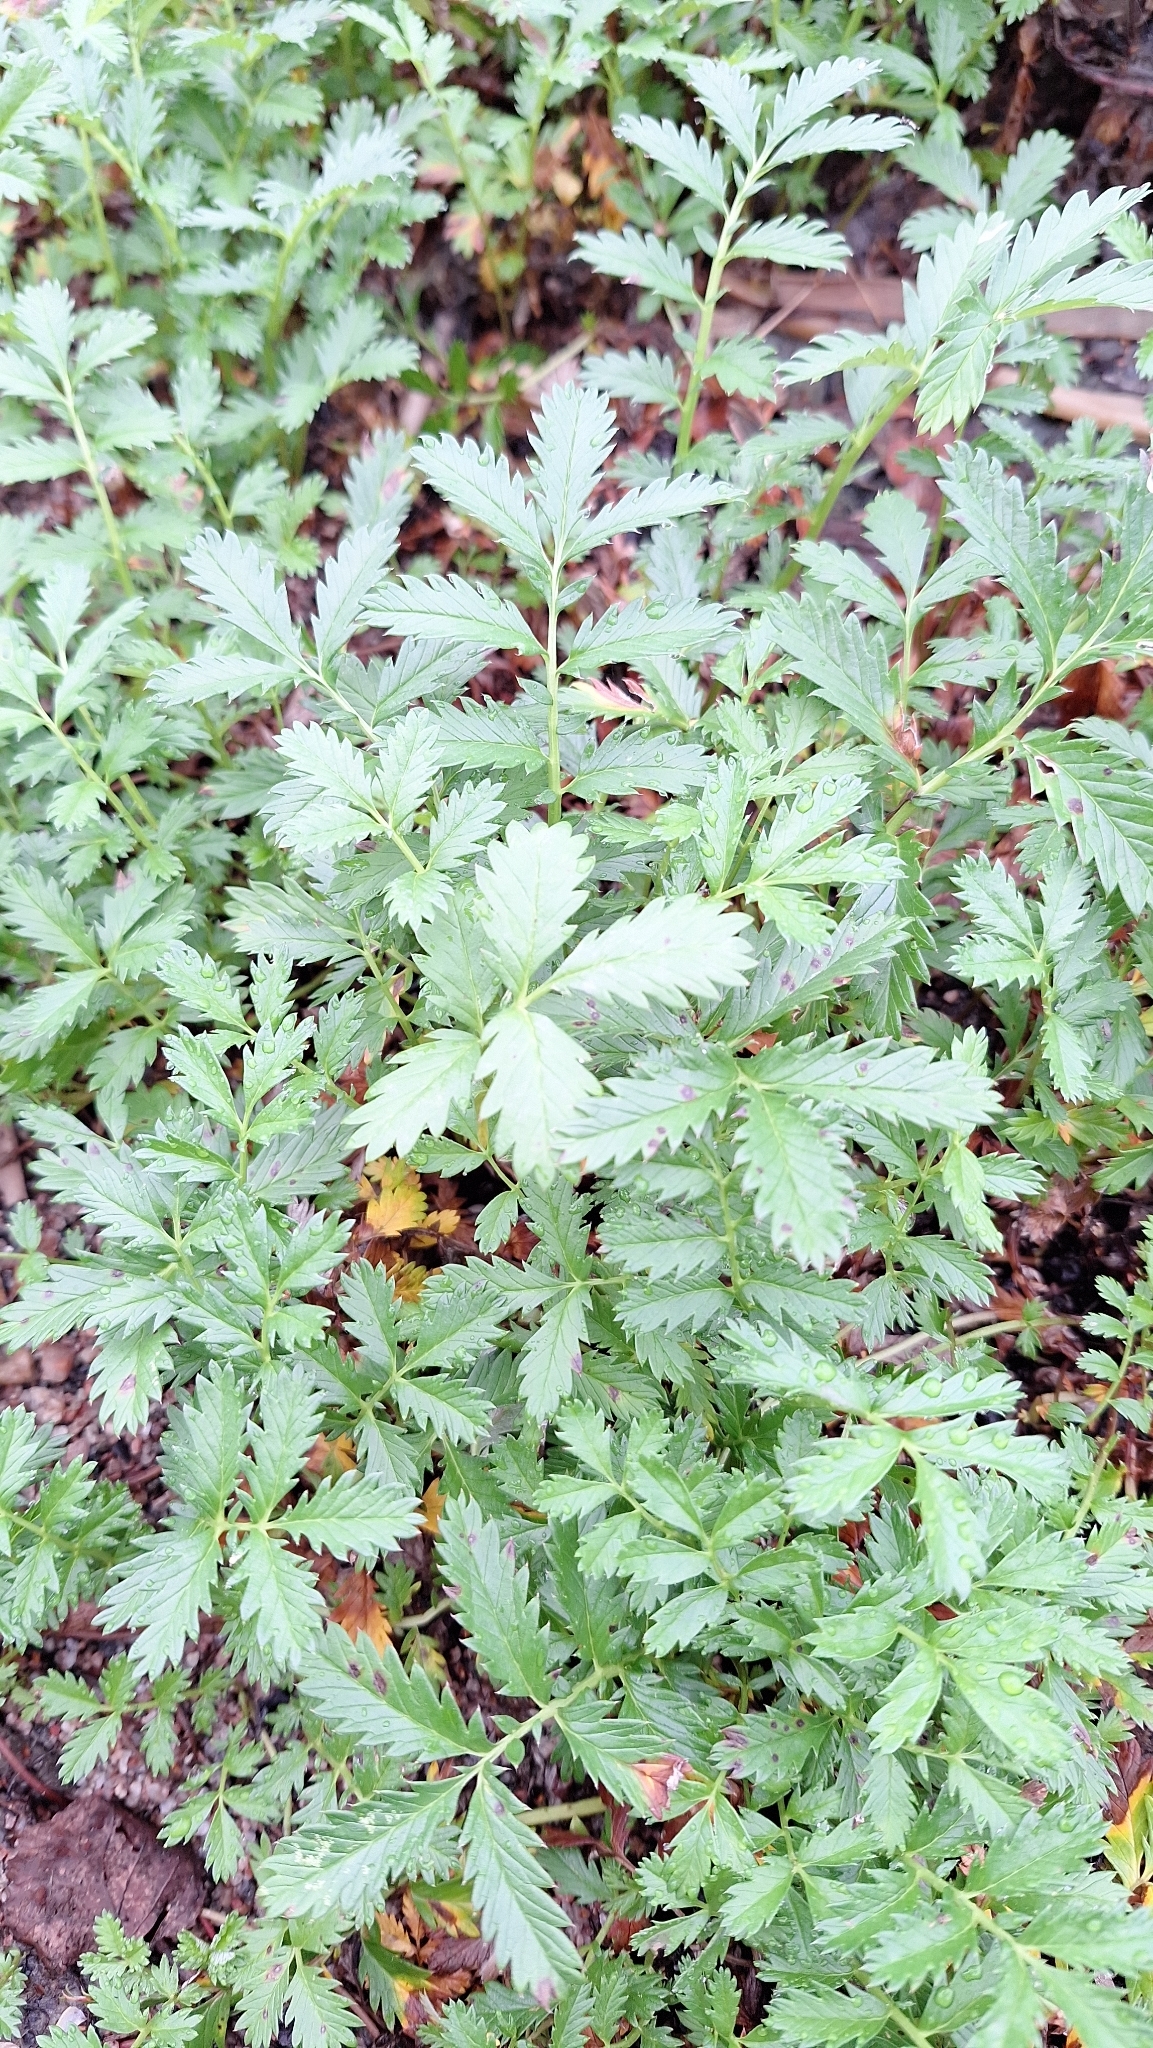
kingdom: Plantae
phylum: Tracheophyta
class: Magnoliopsida
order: Rosales
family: Rosaceae
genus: Argentina
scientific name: Argentina anserina
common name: Common silverweed
